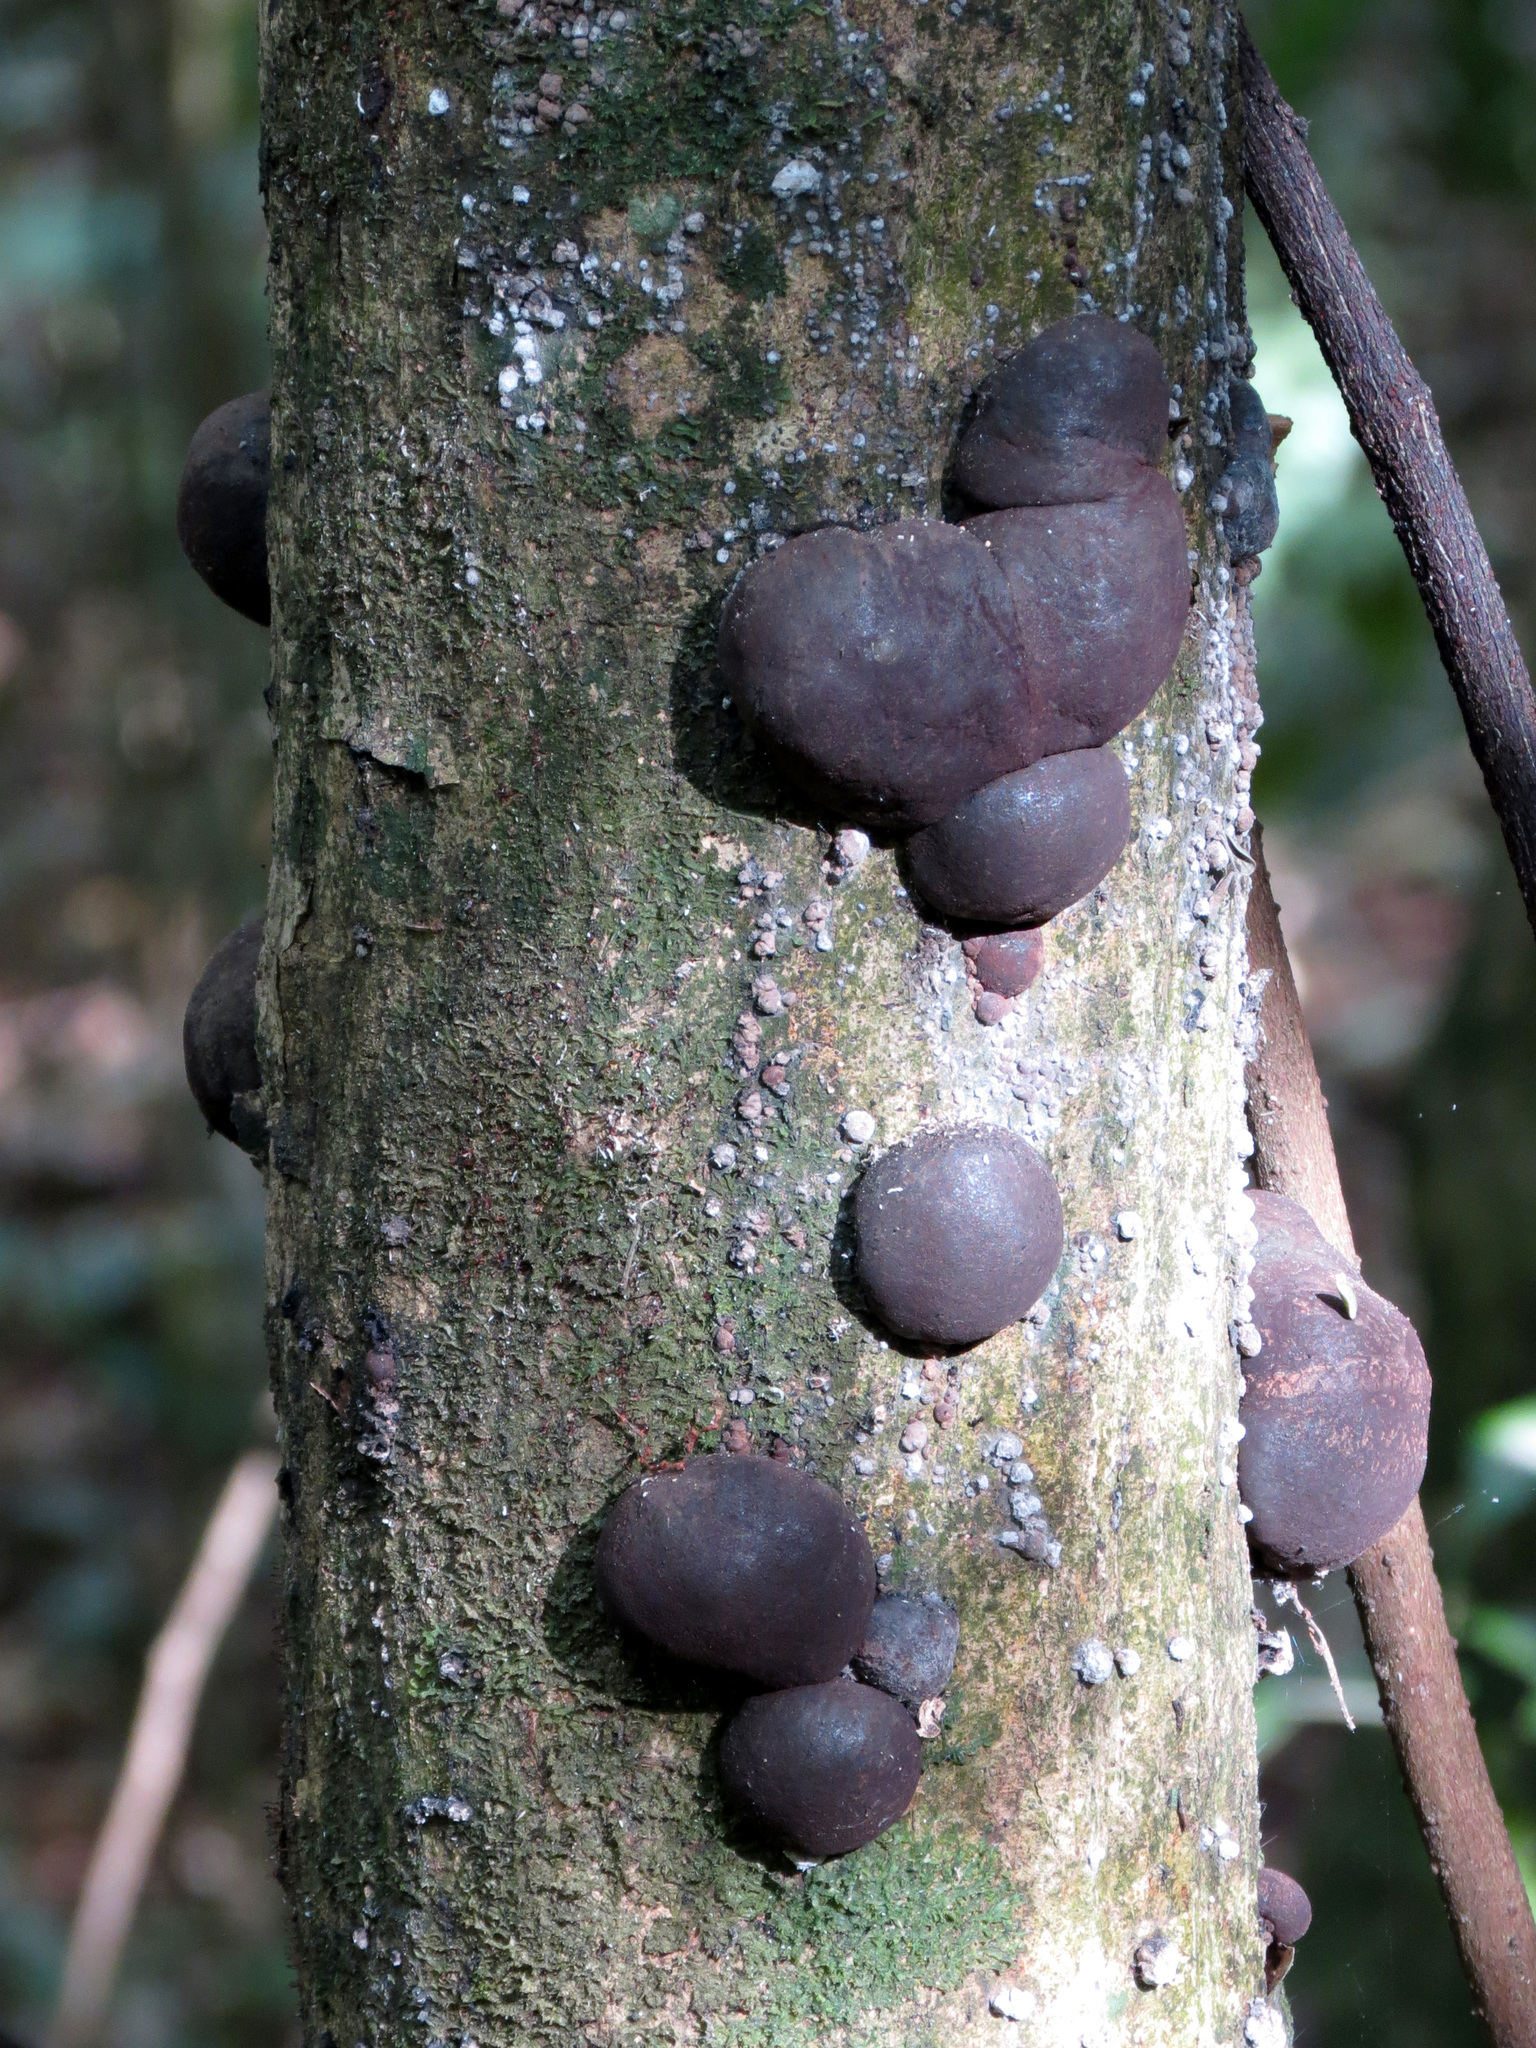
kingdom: Fungi
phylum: Ascomycota
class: Sordariomycetes
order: Xylariales
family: Hypoxylaceae
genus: Daldinia
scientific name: Daldinia
